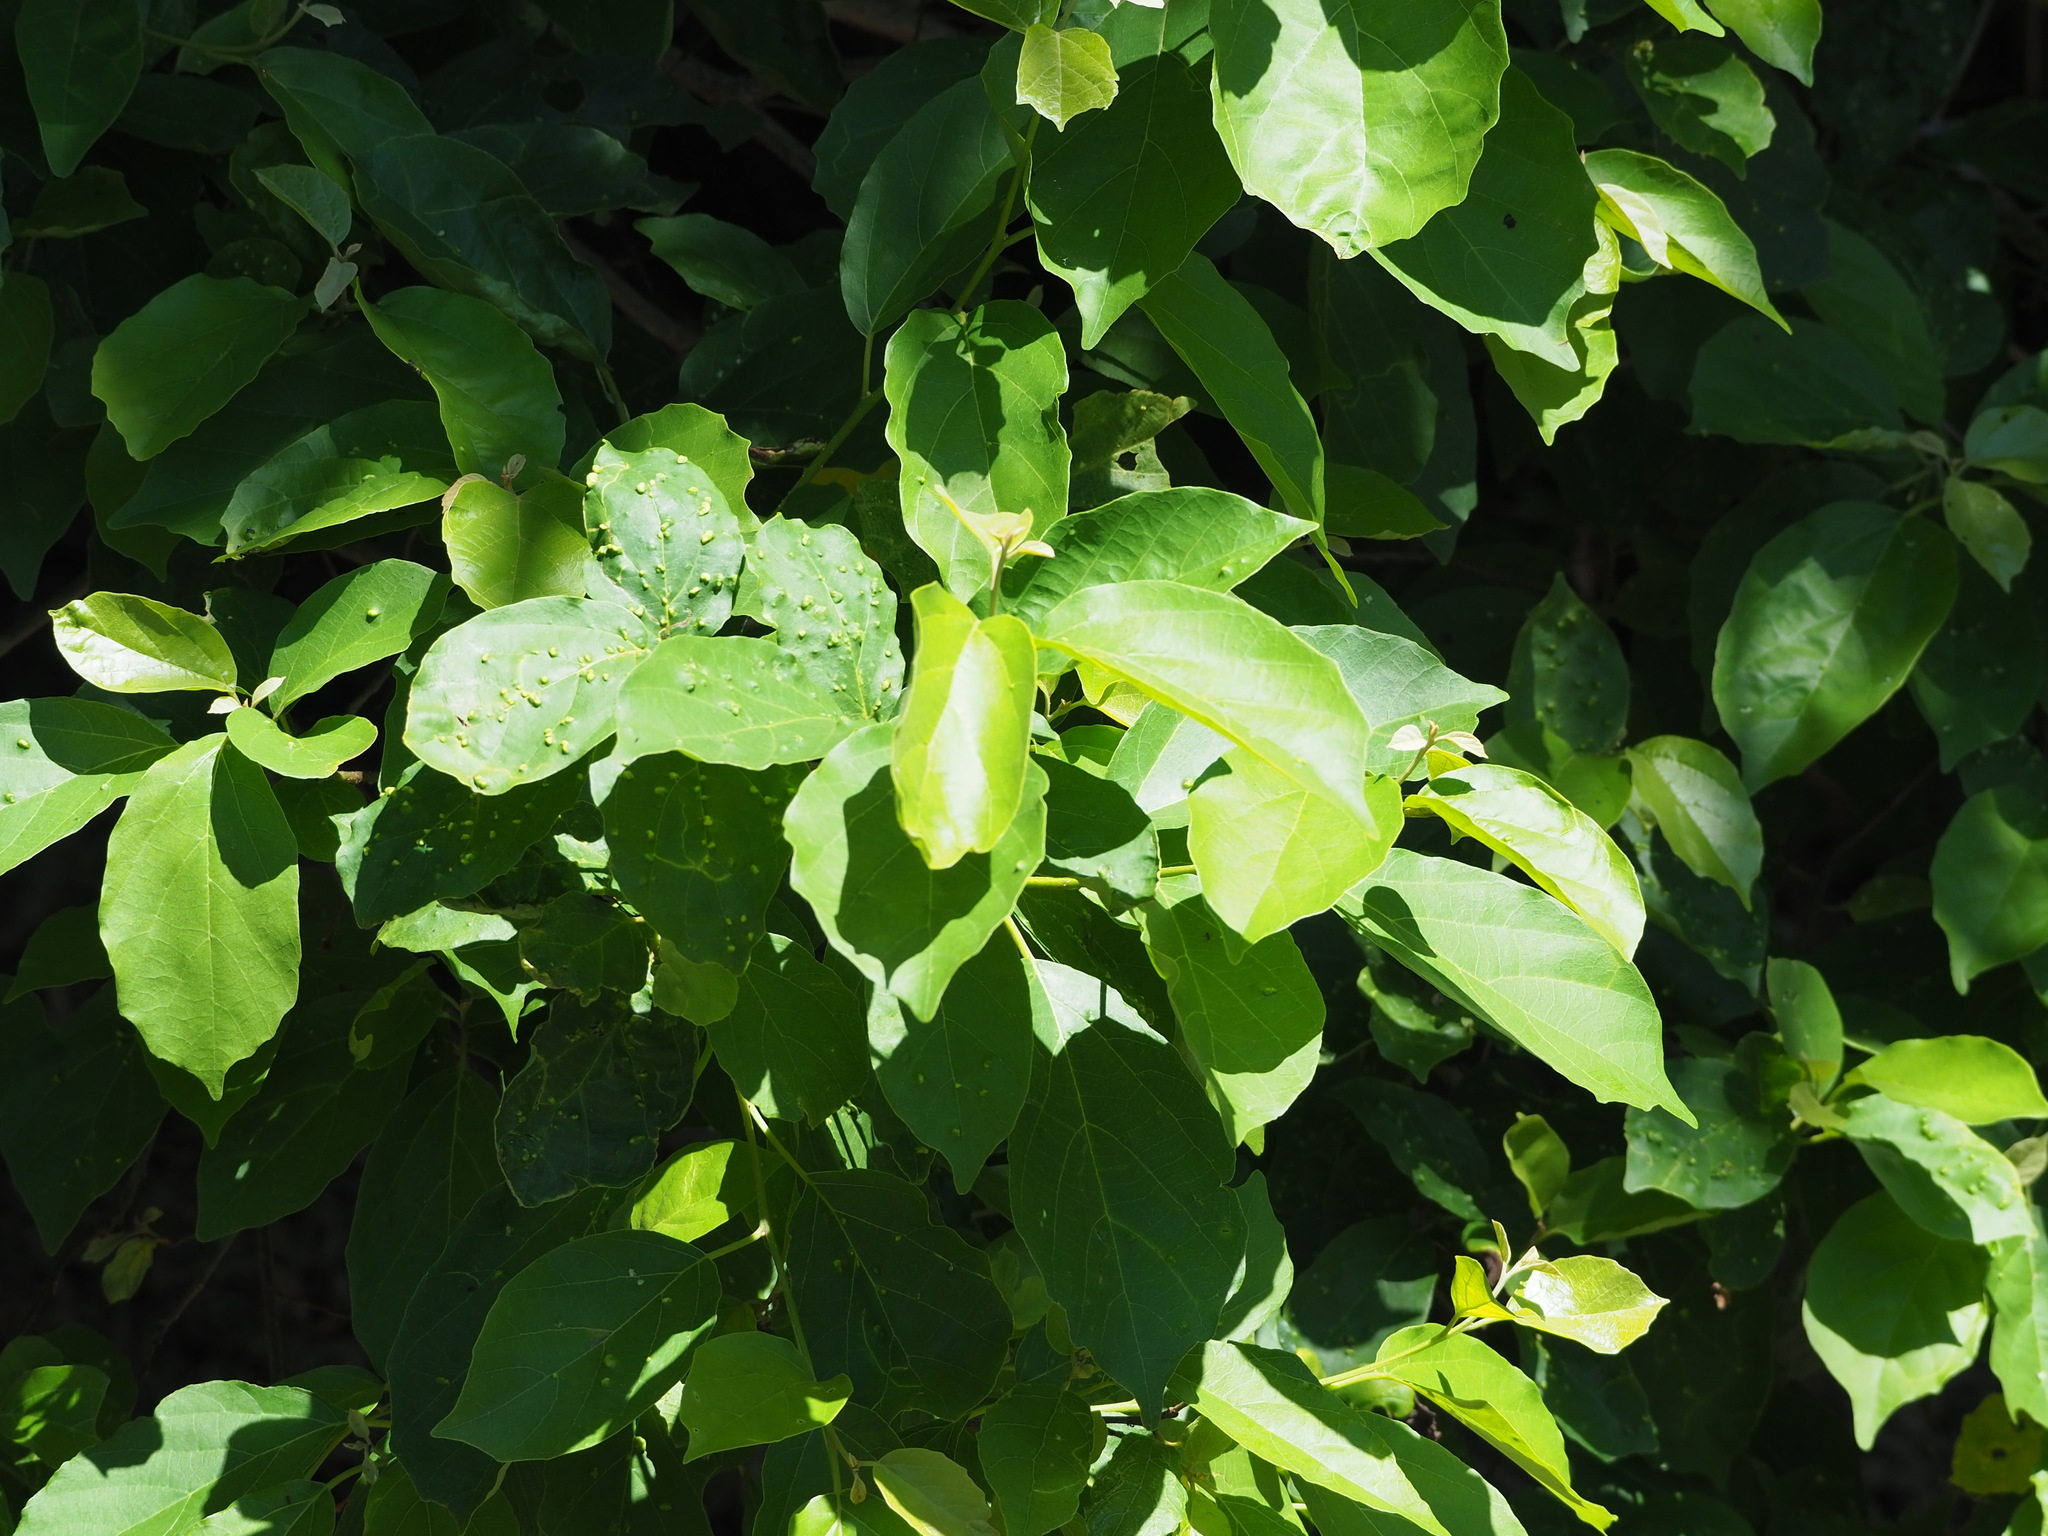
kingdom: Plantae
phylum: Tracheophyta
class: Magnoliopsida
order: Boraginales
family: Cordiaceae
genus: Cordia
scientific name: Cordia dichotoma
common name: Fragrant manjack
